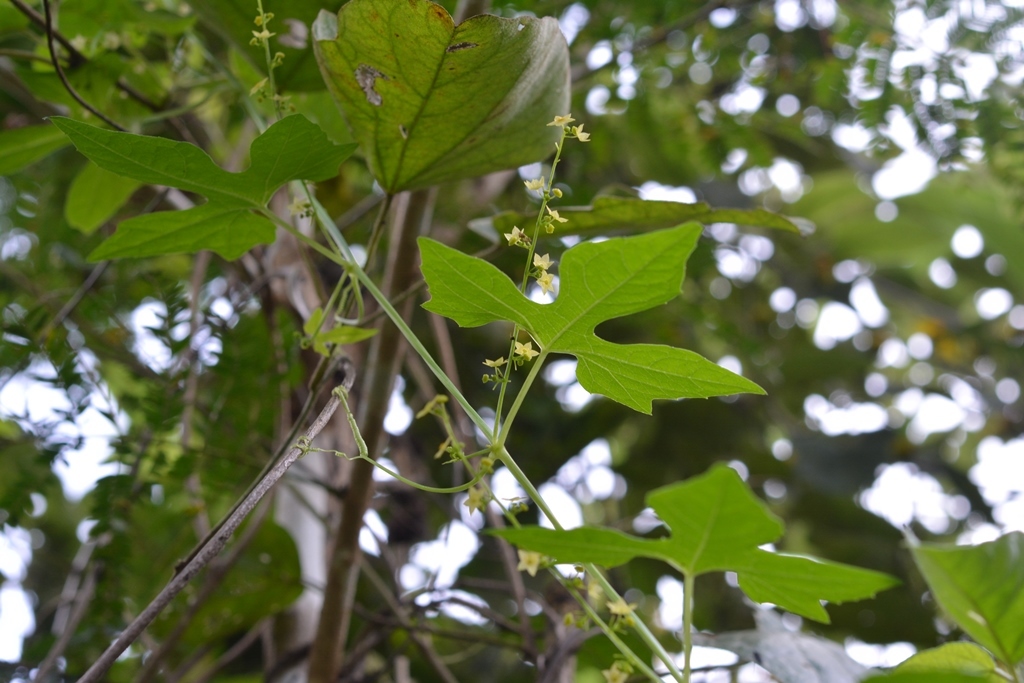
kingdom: Plantae
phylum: Tracheophyta
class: Magnoliopsida
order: Cucurbitales
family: Cucurbitaceae
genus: Sicyos
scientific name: Sicyos davilae
